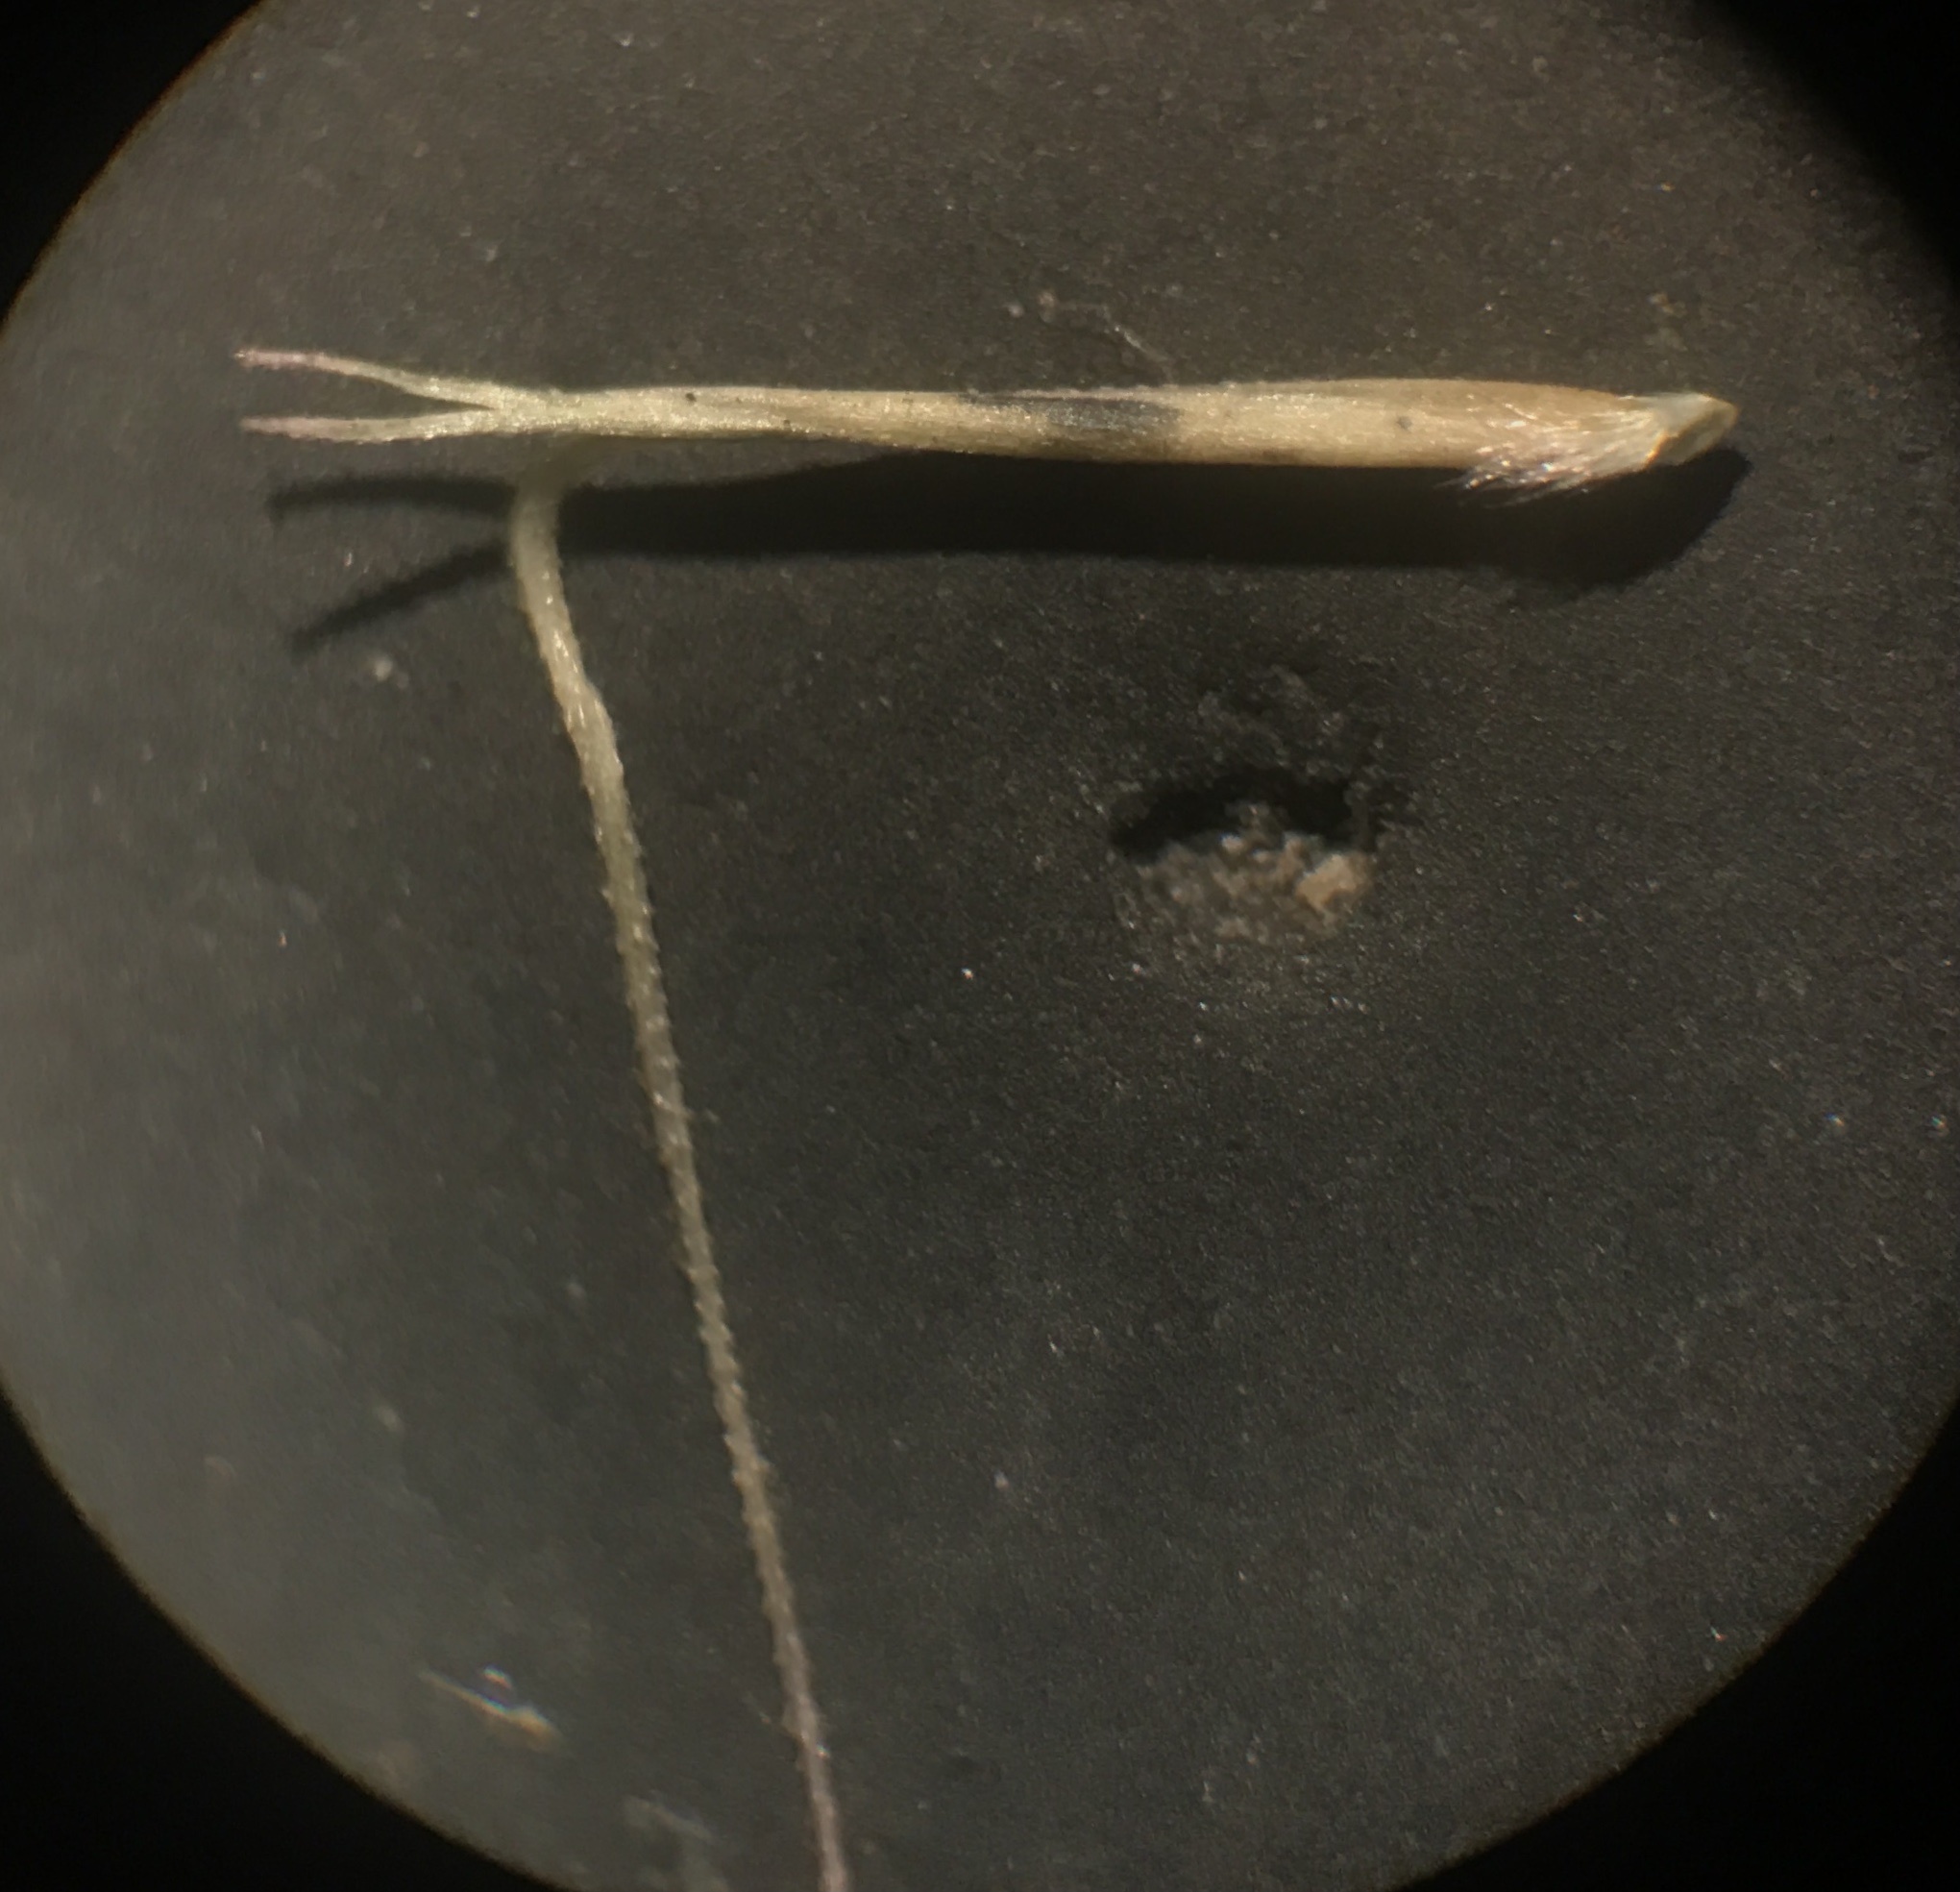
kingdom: Plantae
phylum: Tracheophyta
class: Liliopsida
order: Poales
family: Poaceae
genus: Aristida
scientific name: Aristida longespica
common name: Long-spiked triple-awned grass
